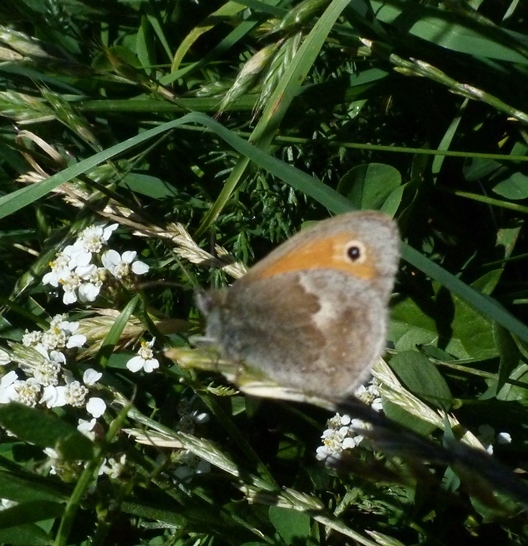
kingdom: Animalia
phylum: Arthropoda
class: Insecta
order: Lepidoptera
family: Nymphalidae
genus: Coenonympha
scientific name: Coenonympha pamphilus
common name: Small heath
